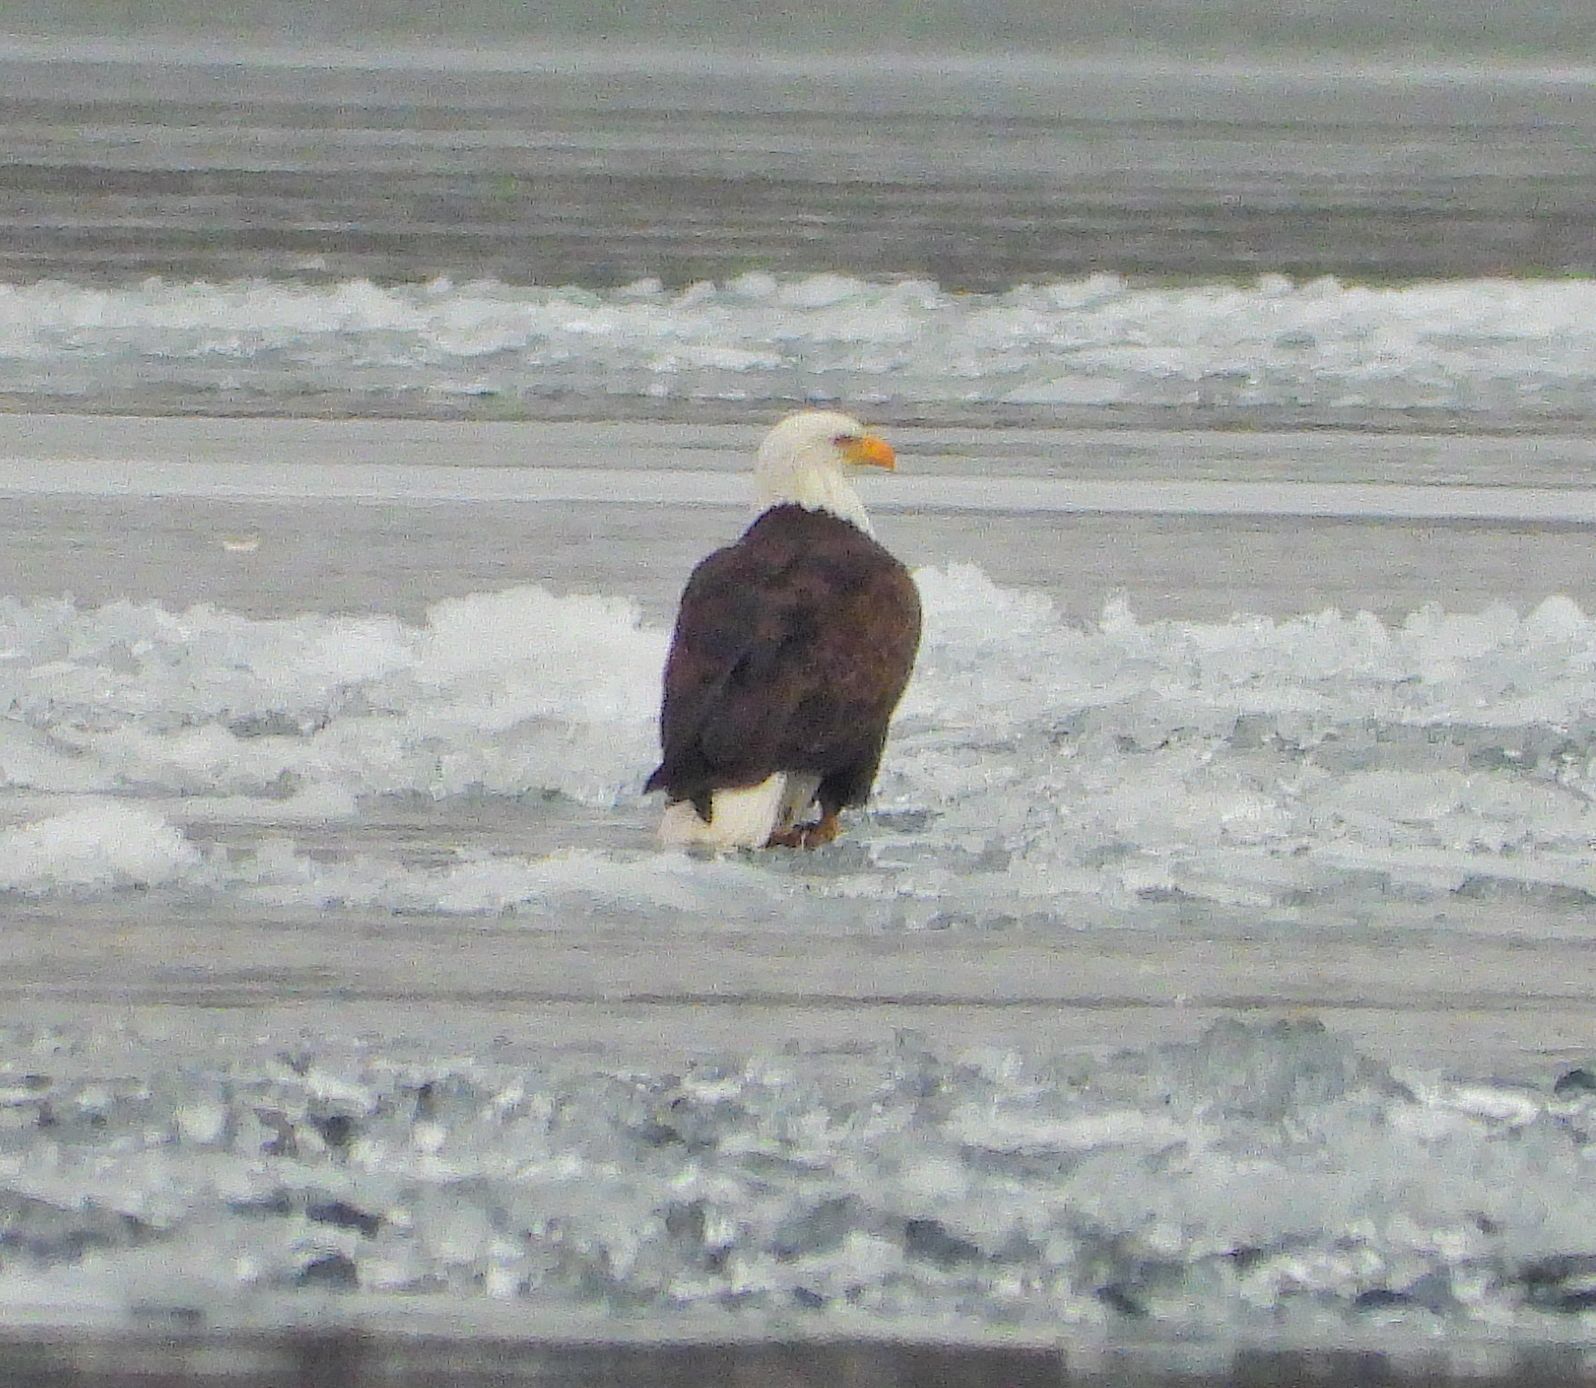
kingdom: Animalia
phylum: Chordata
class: Aves
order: Accipitriformes
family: Accipitridae
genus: Haliaeetus
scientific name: Haliaeetus leucocephalus
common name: Bald eagle
